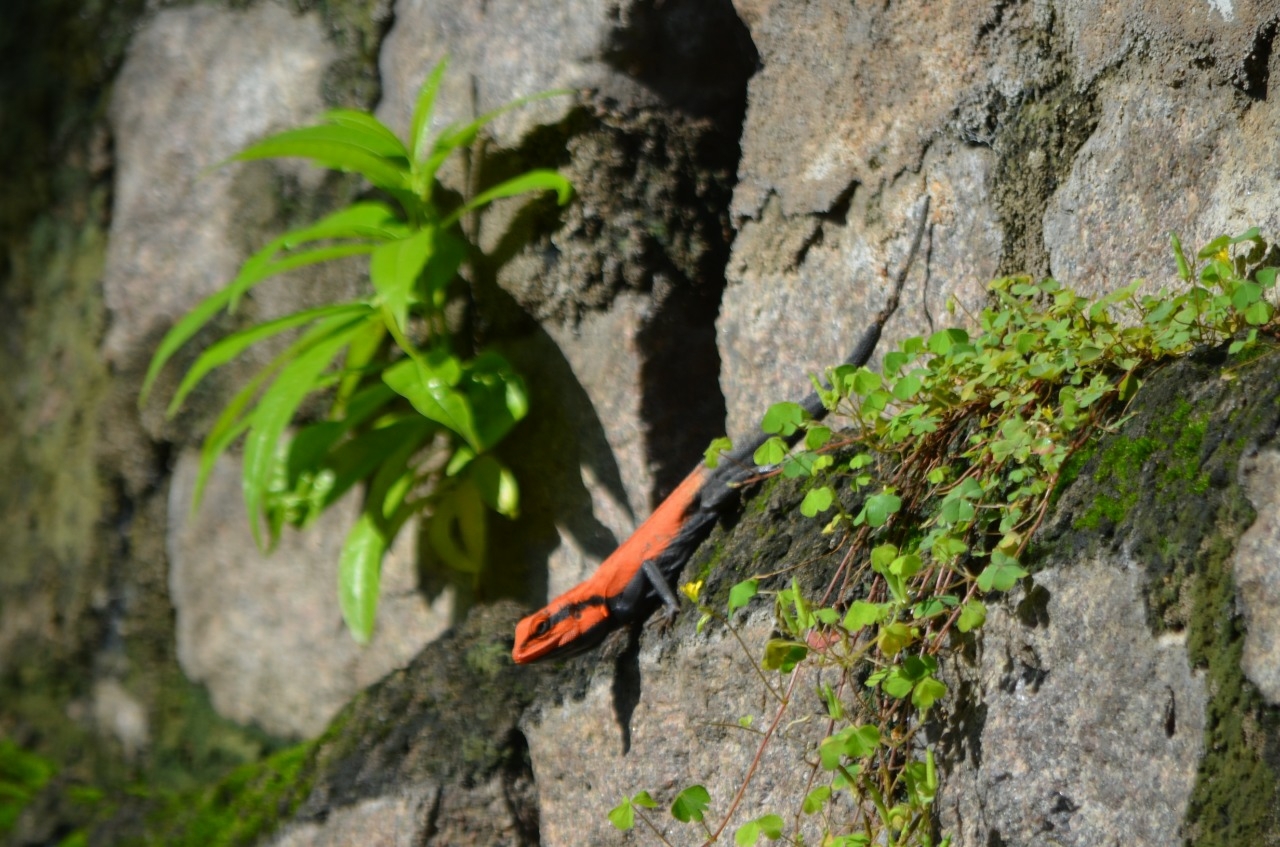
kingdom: Animalia
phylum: Chordata
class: Squamata
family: Agamidae
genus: Psammophilus
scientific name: Psammophilus dorsalis
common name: South indian rock agama
